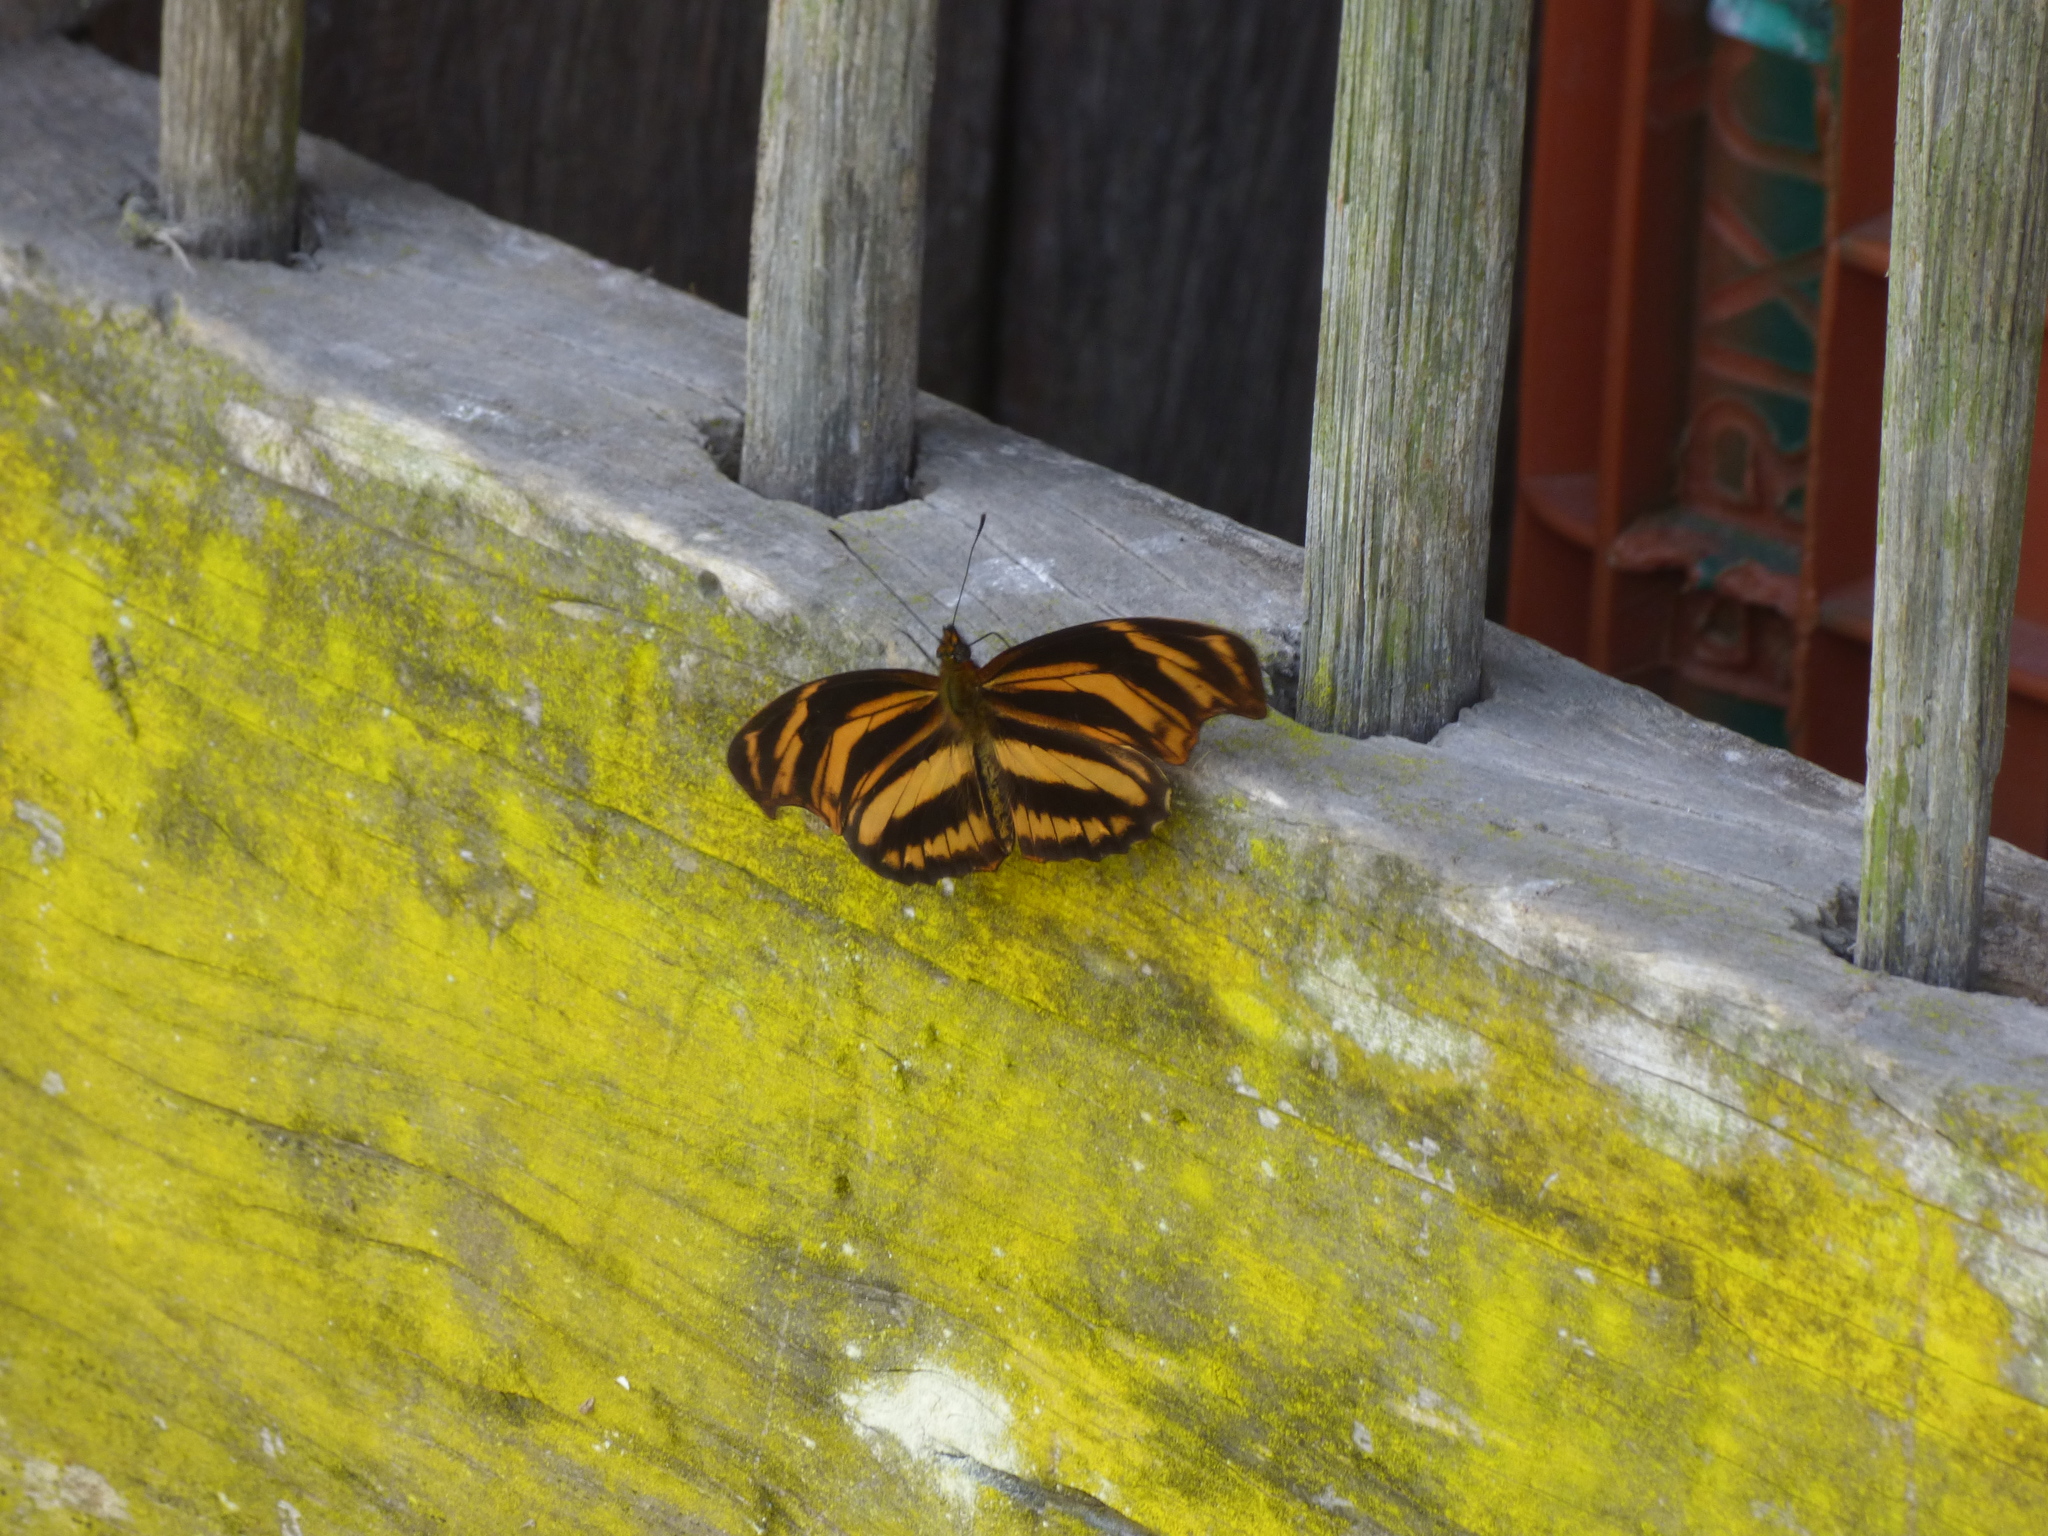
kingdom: Animalia
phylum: Arthropoda
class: Insecta
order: Lepidoptera
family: Nymphalidae
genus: Podotricha
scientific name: Podotricha judith
